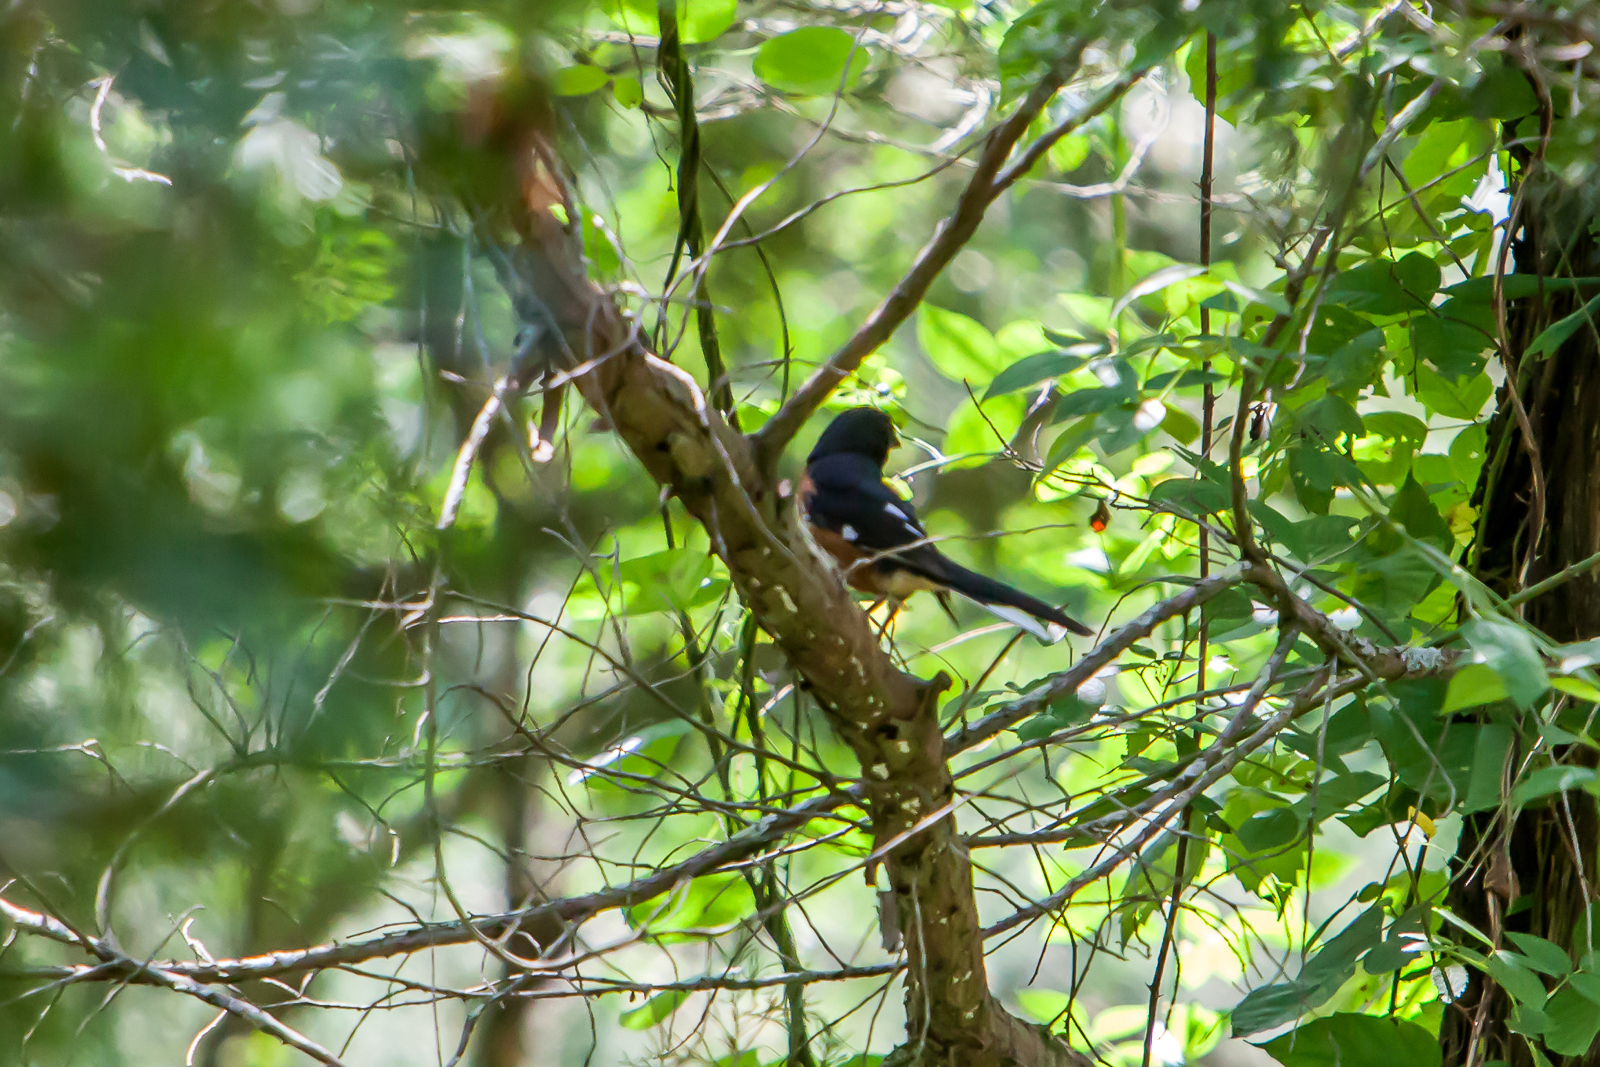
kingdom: Animalia
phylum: Chordata
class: Aves
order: Passeriformes
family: Passerellidae
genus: Pipilo
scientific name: Pipilo erythrophthalmus
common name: Eastern towhee
